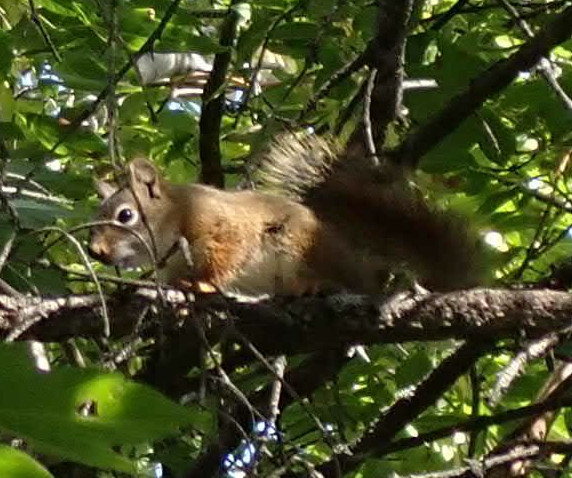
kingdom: Animalia
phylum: Chordata
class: Mammalia
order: Rodentia
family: Sciuridae
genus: Tamiasciurus
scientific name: Tamiasciurus hudsonicus
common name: Red squirrel
